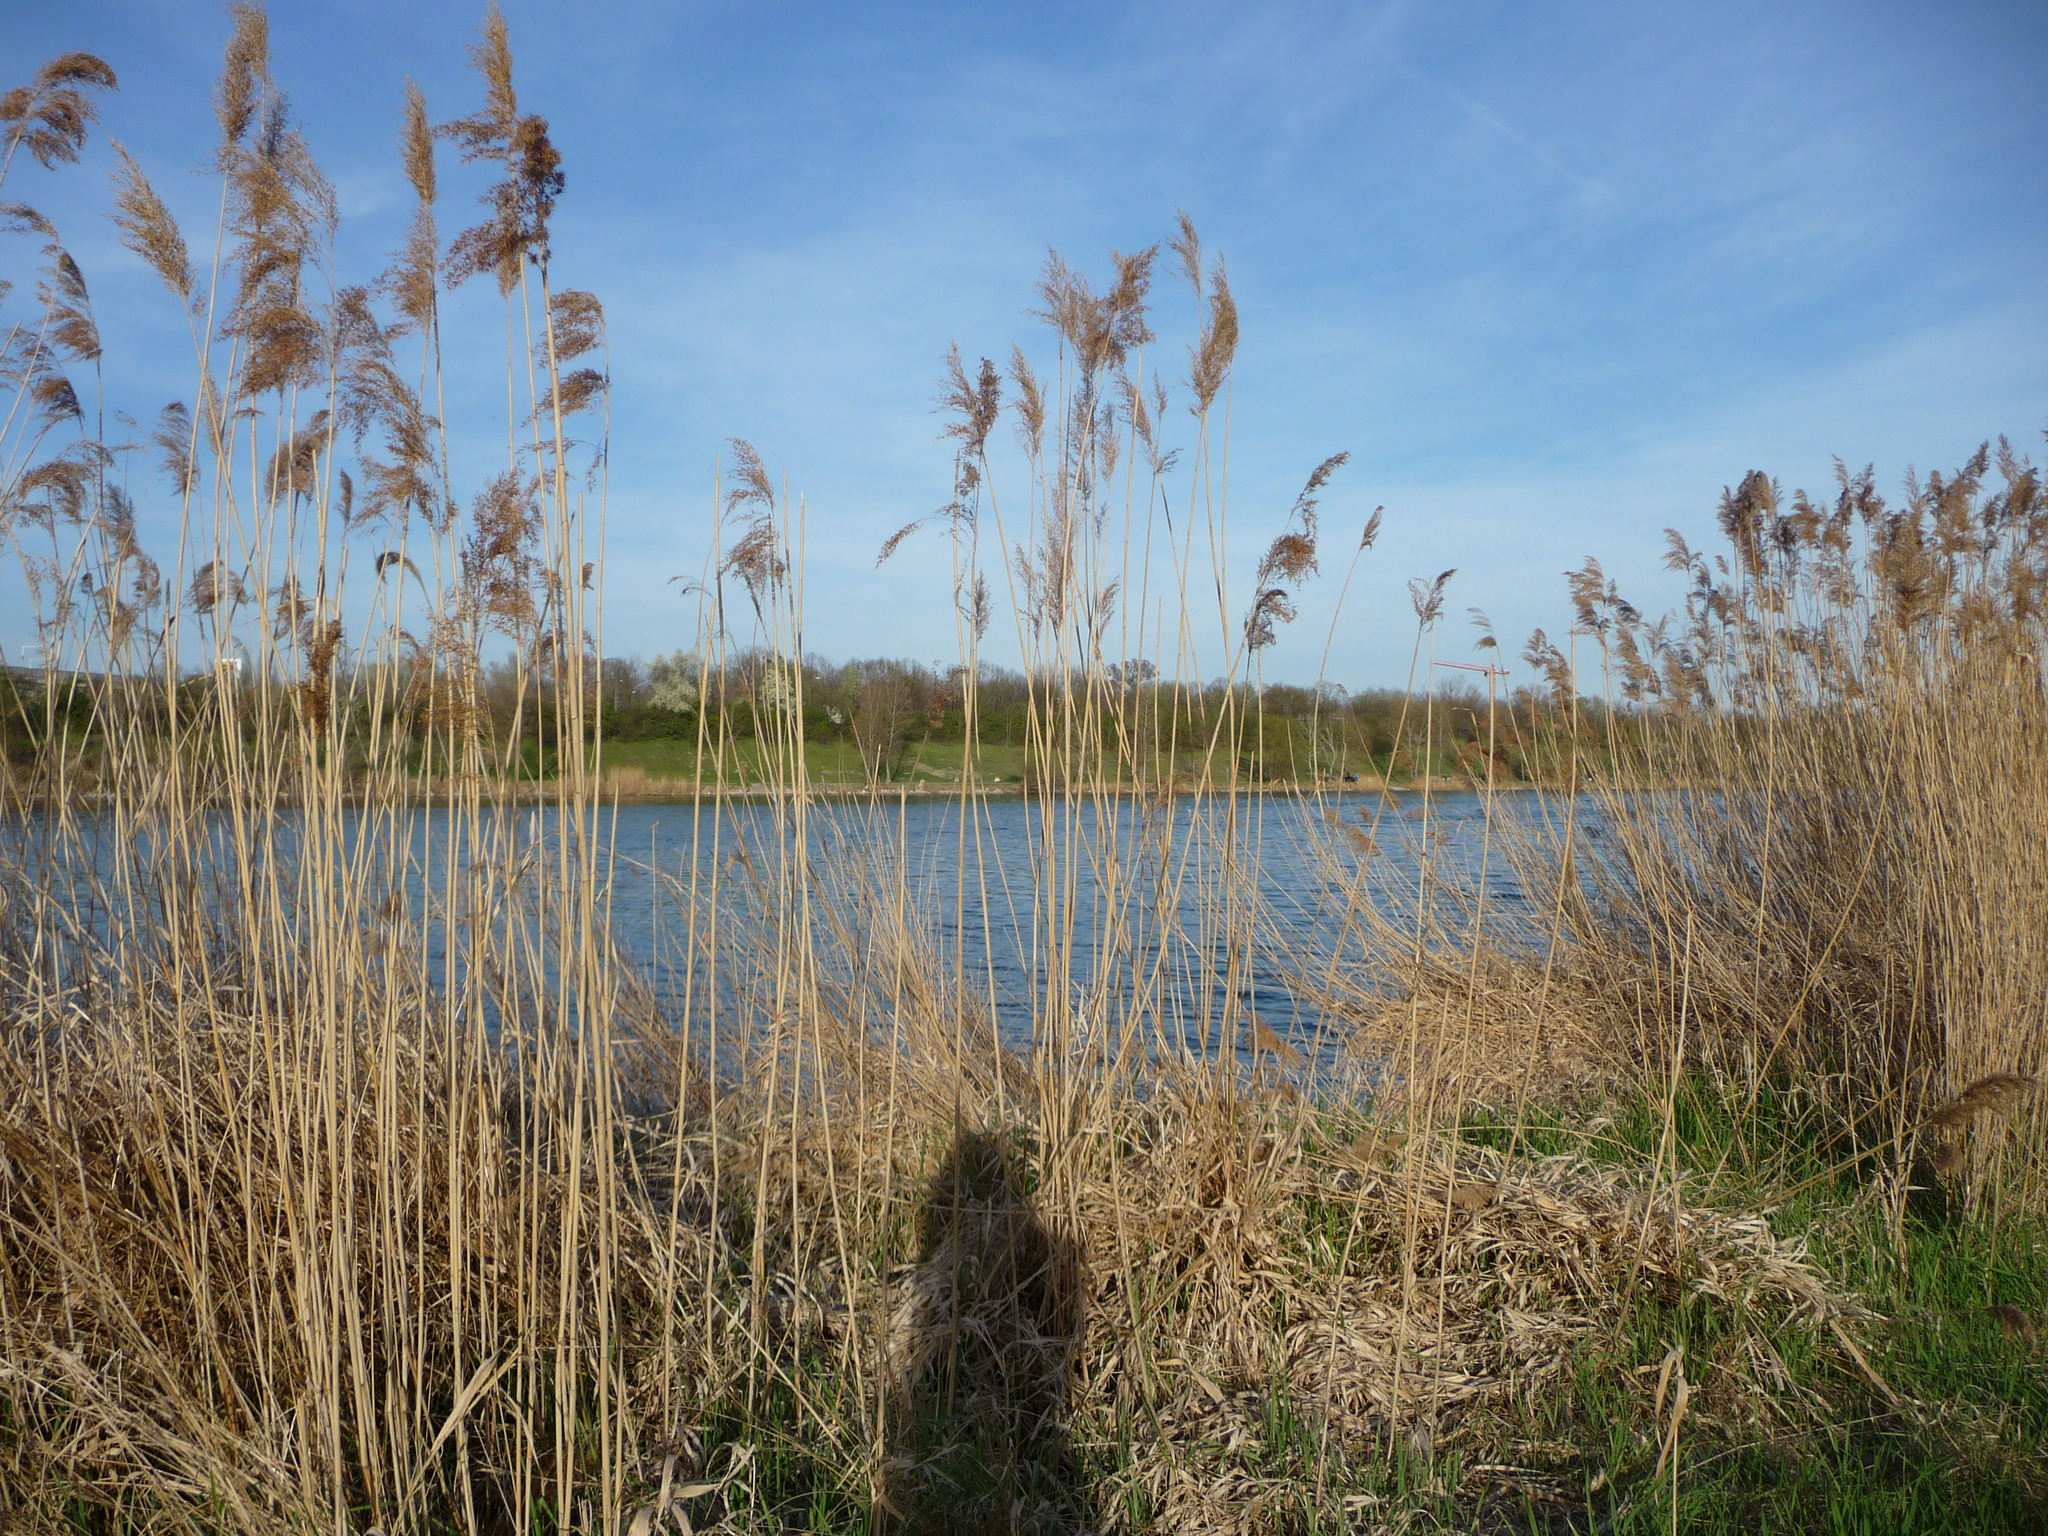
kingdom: Plantae
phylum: Tracheophyta
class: Liliopsida
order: Poales
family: Poaceae
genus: Phragmites
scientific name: Phragmites australis
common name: Common reed
